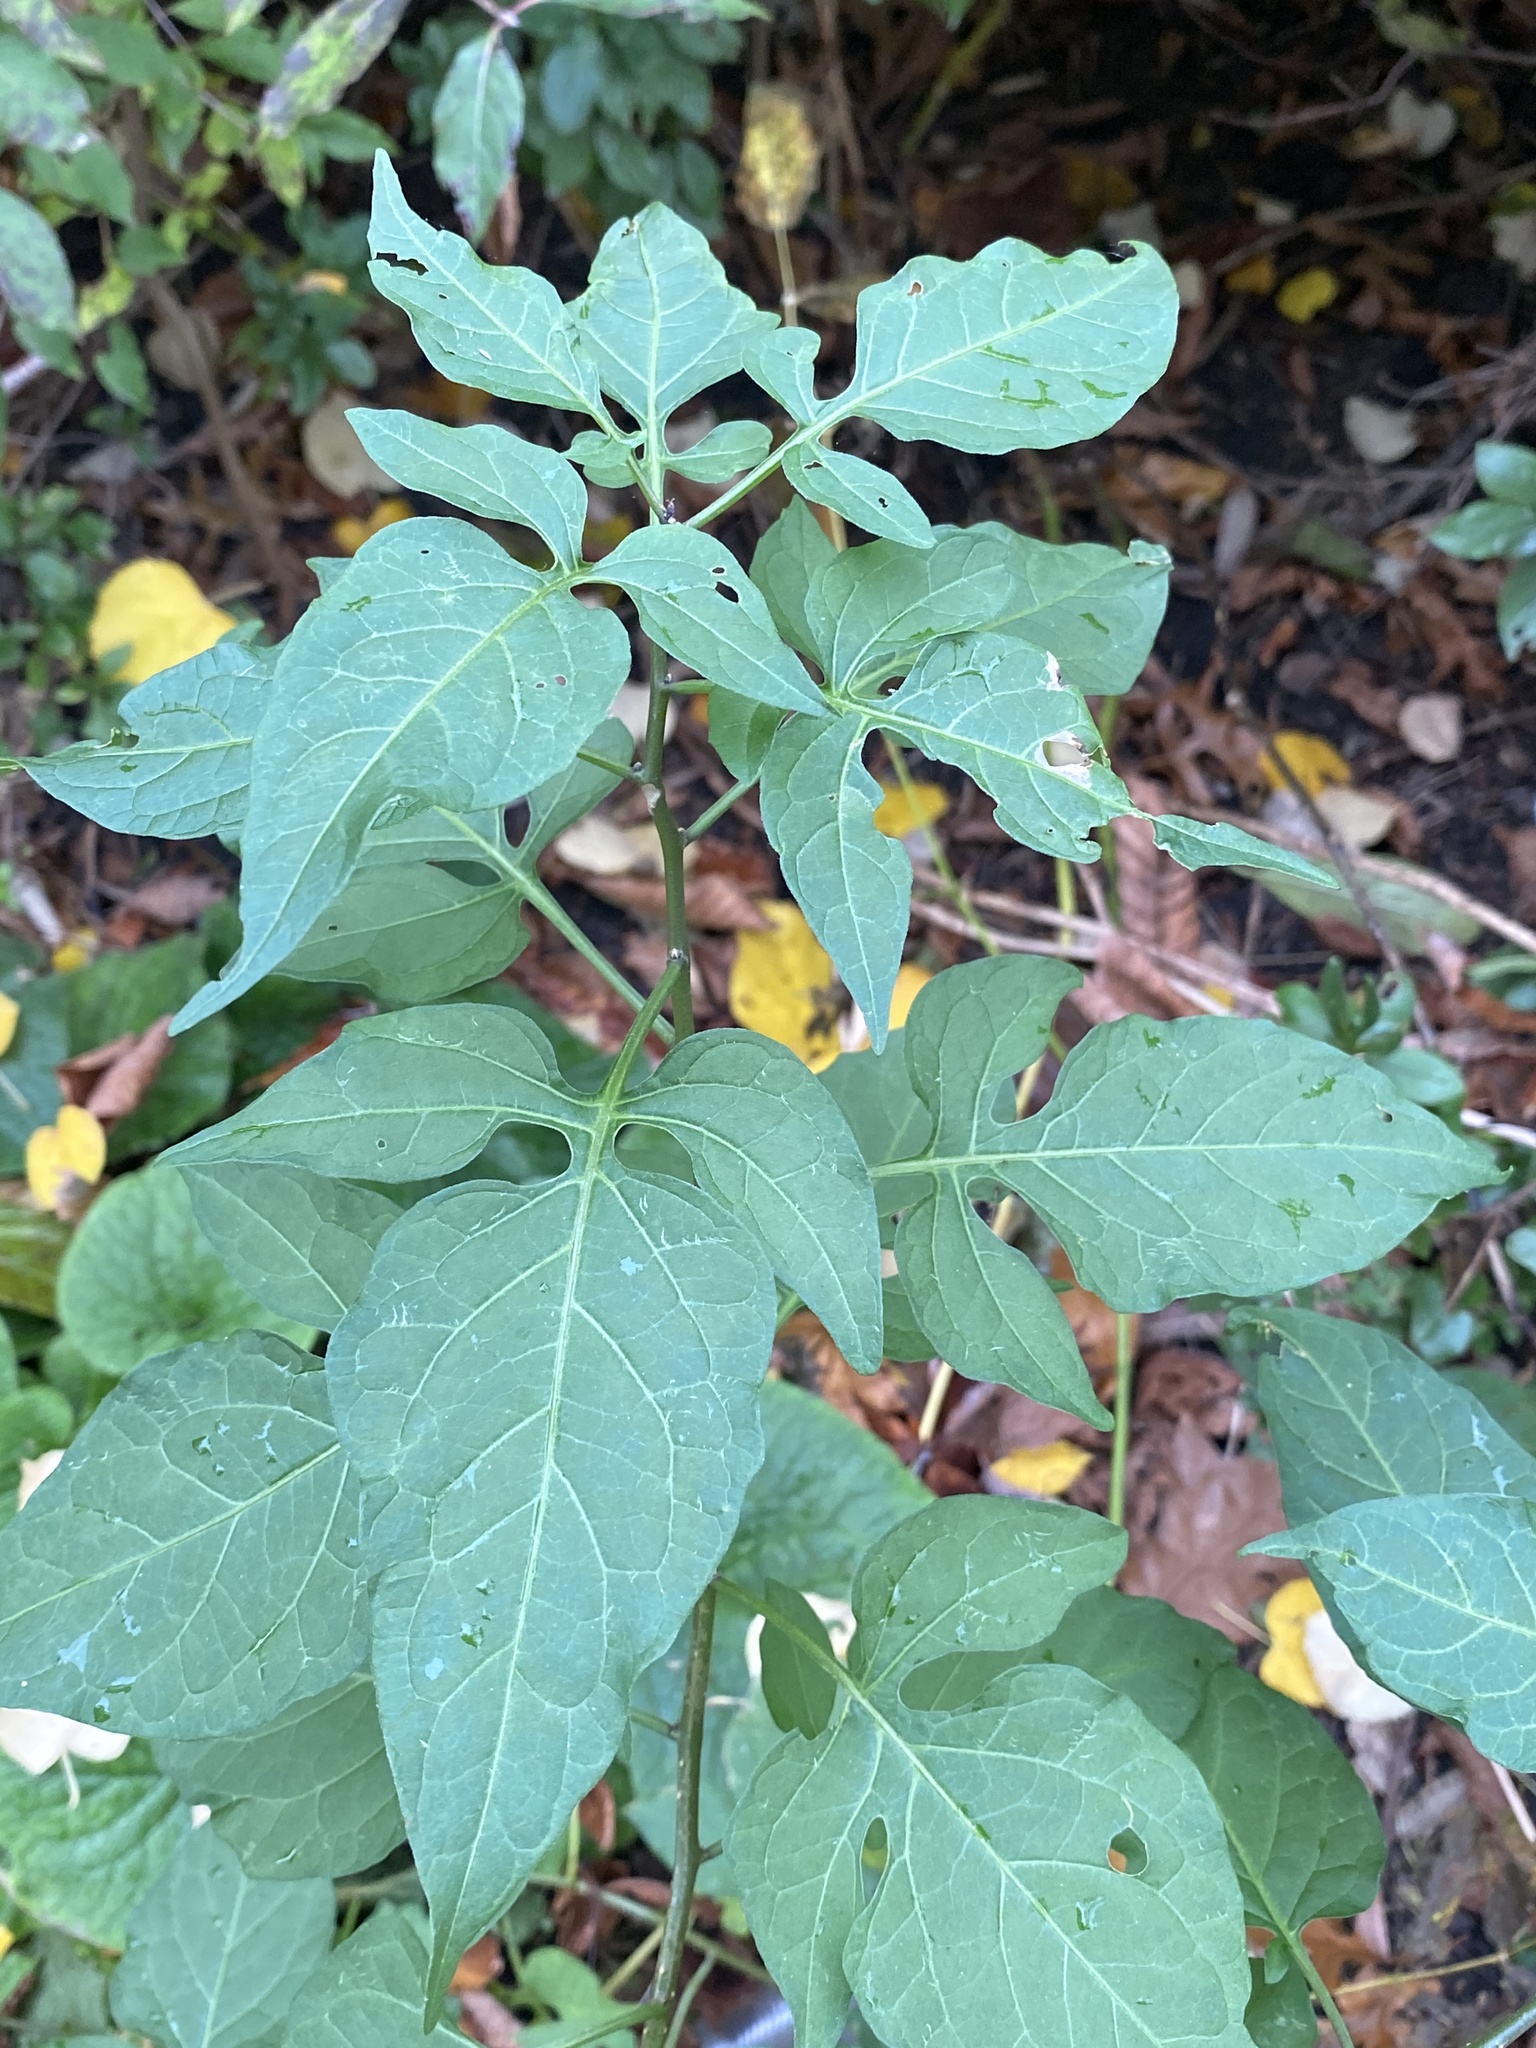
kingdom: Plantae
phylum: Tracheophyta
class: Magnoliopsida
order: Solanales
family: Solanaceae
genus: Solanum
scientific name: Solanum dulcamara
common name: Climbing nightshade
